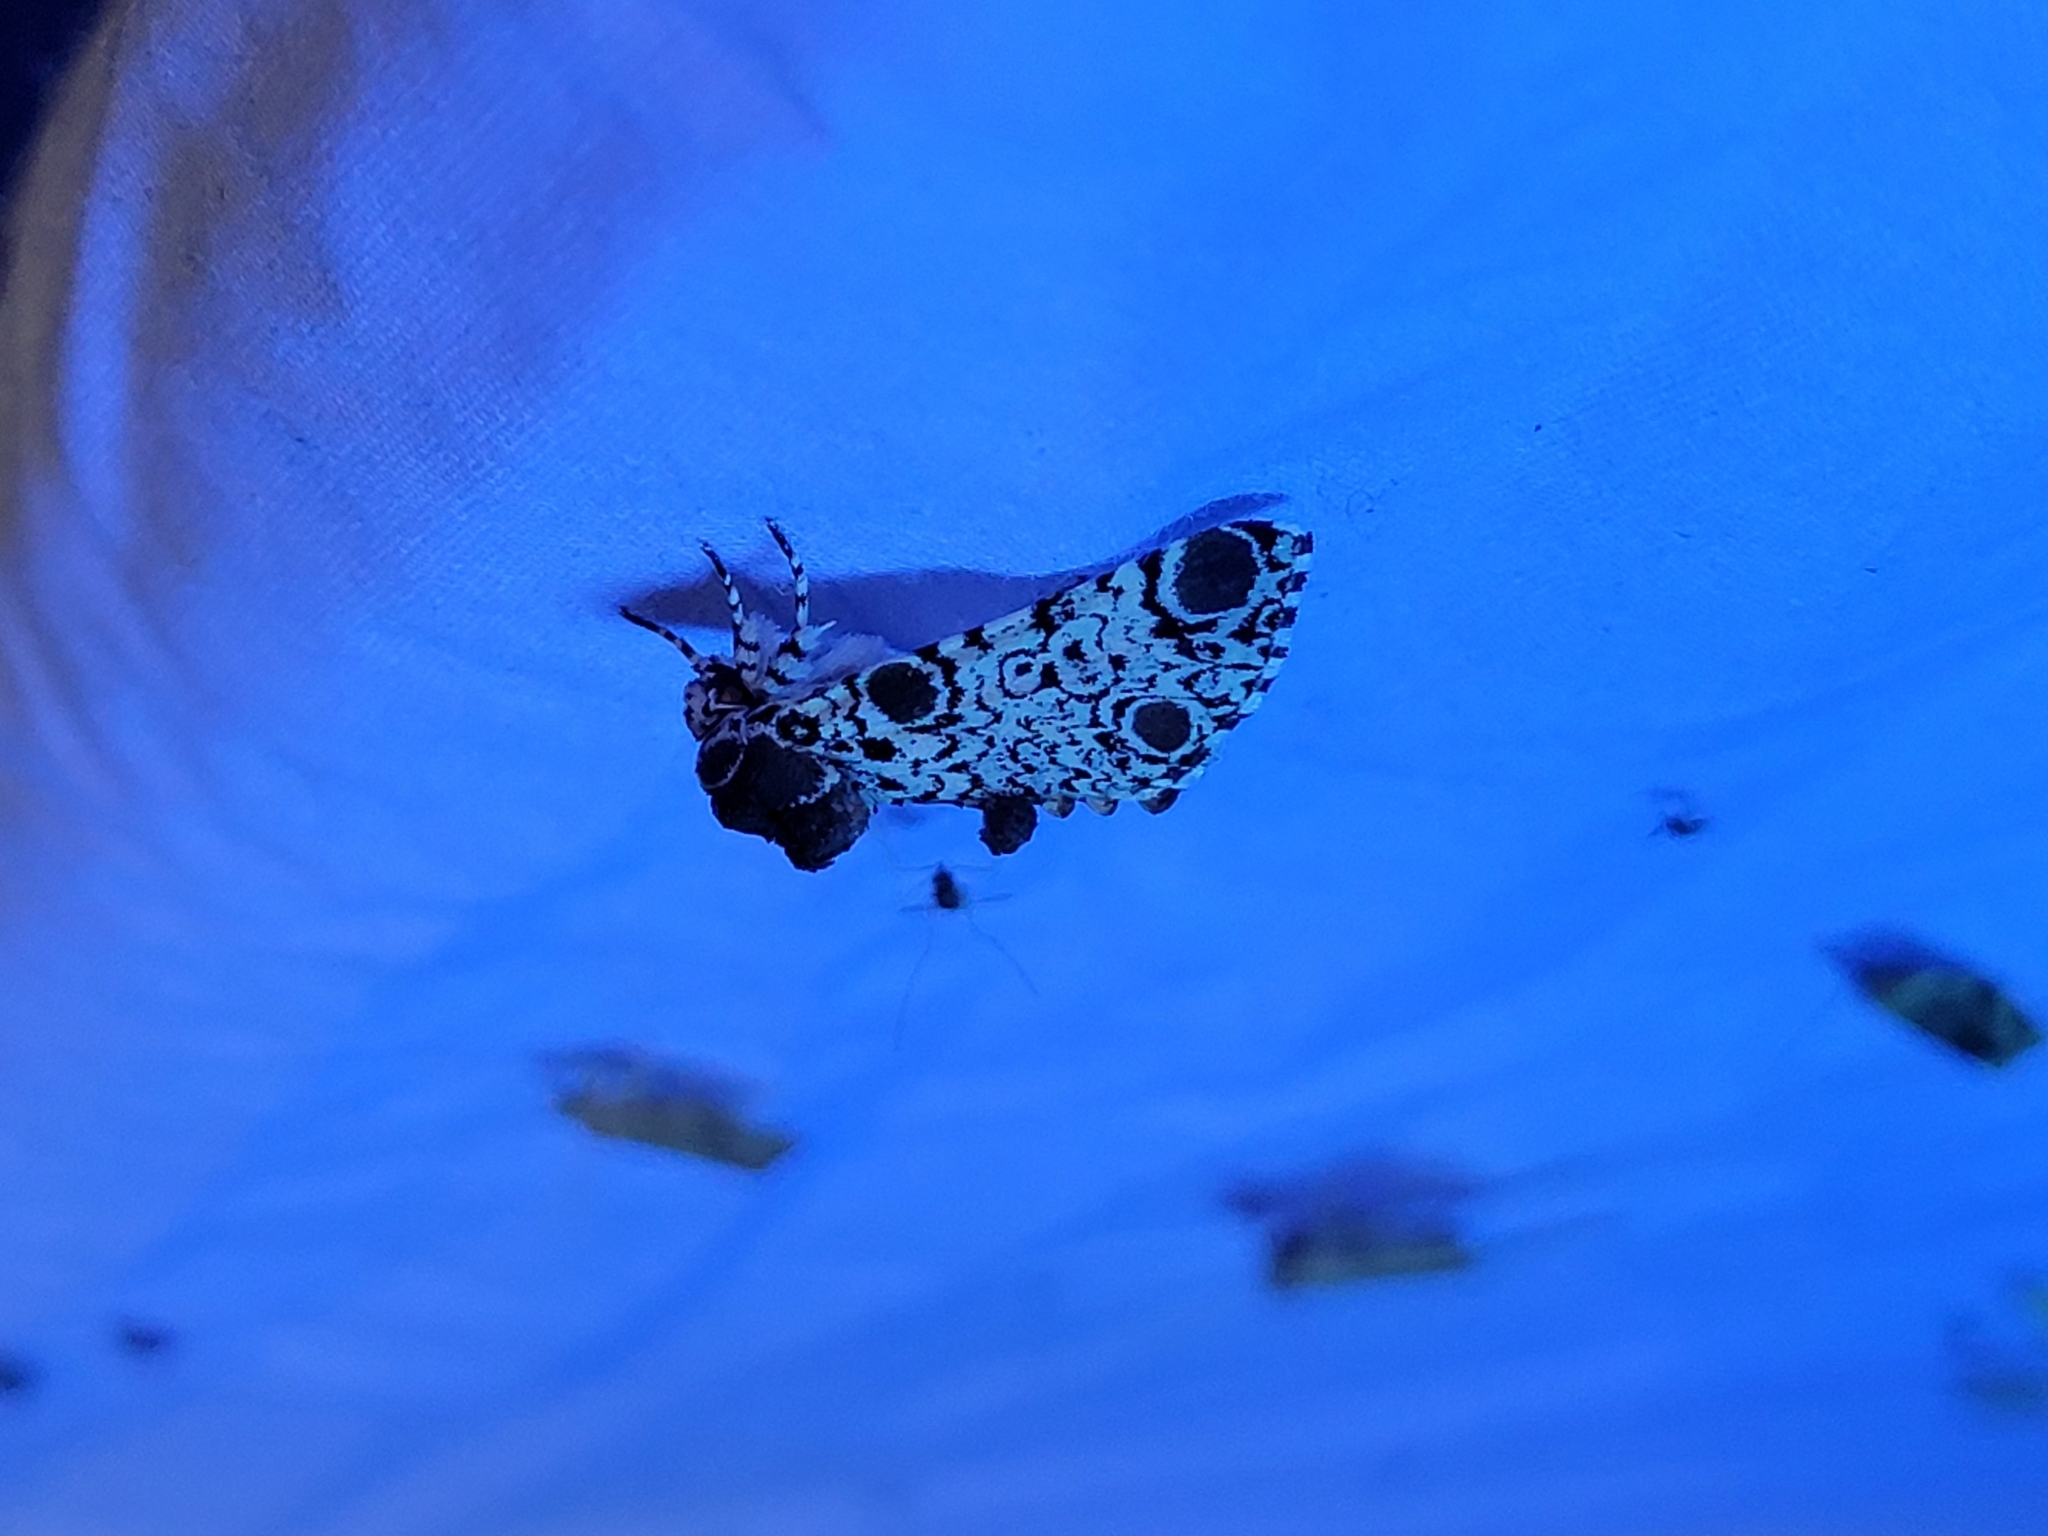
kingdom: Animalia
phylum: Arthropoda
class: Insecta
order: Lepidoptera
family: Noctuidae
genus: Harrisimemna
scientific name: Harrisimemna trisignata
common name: Harris threespot
